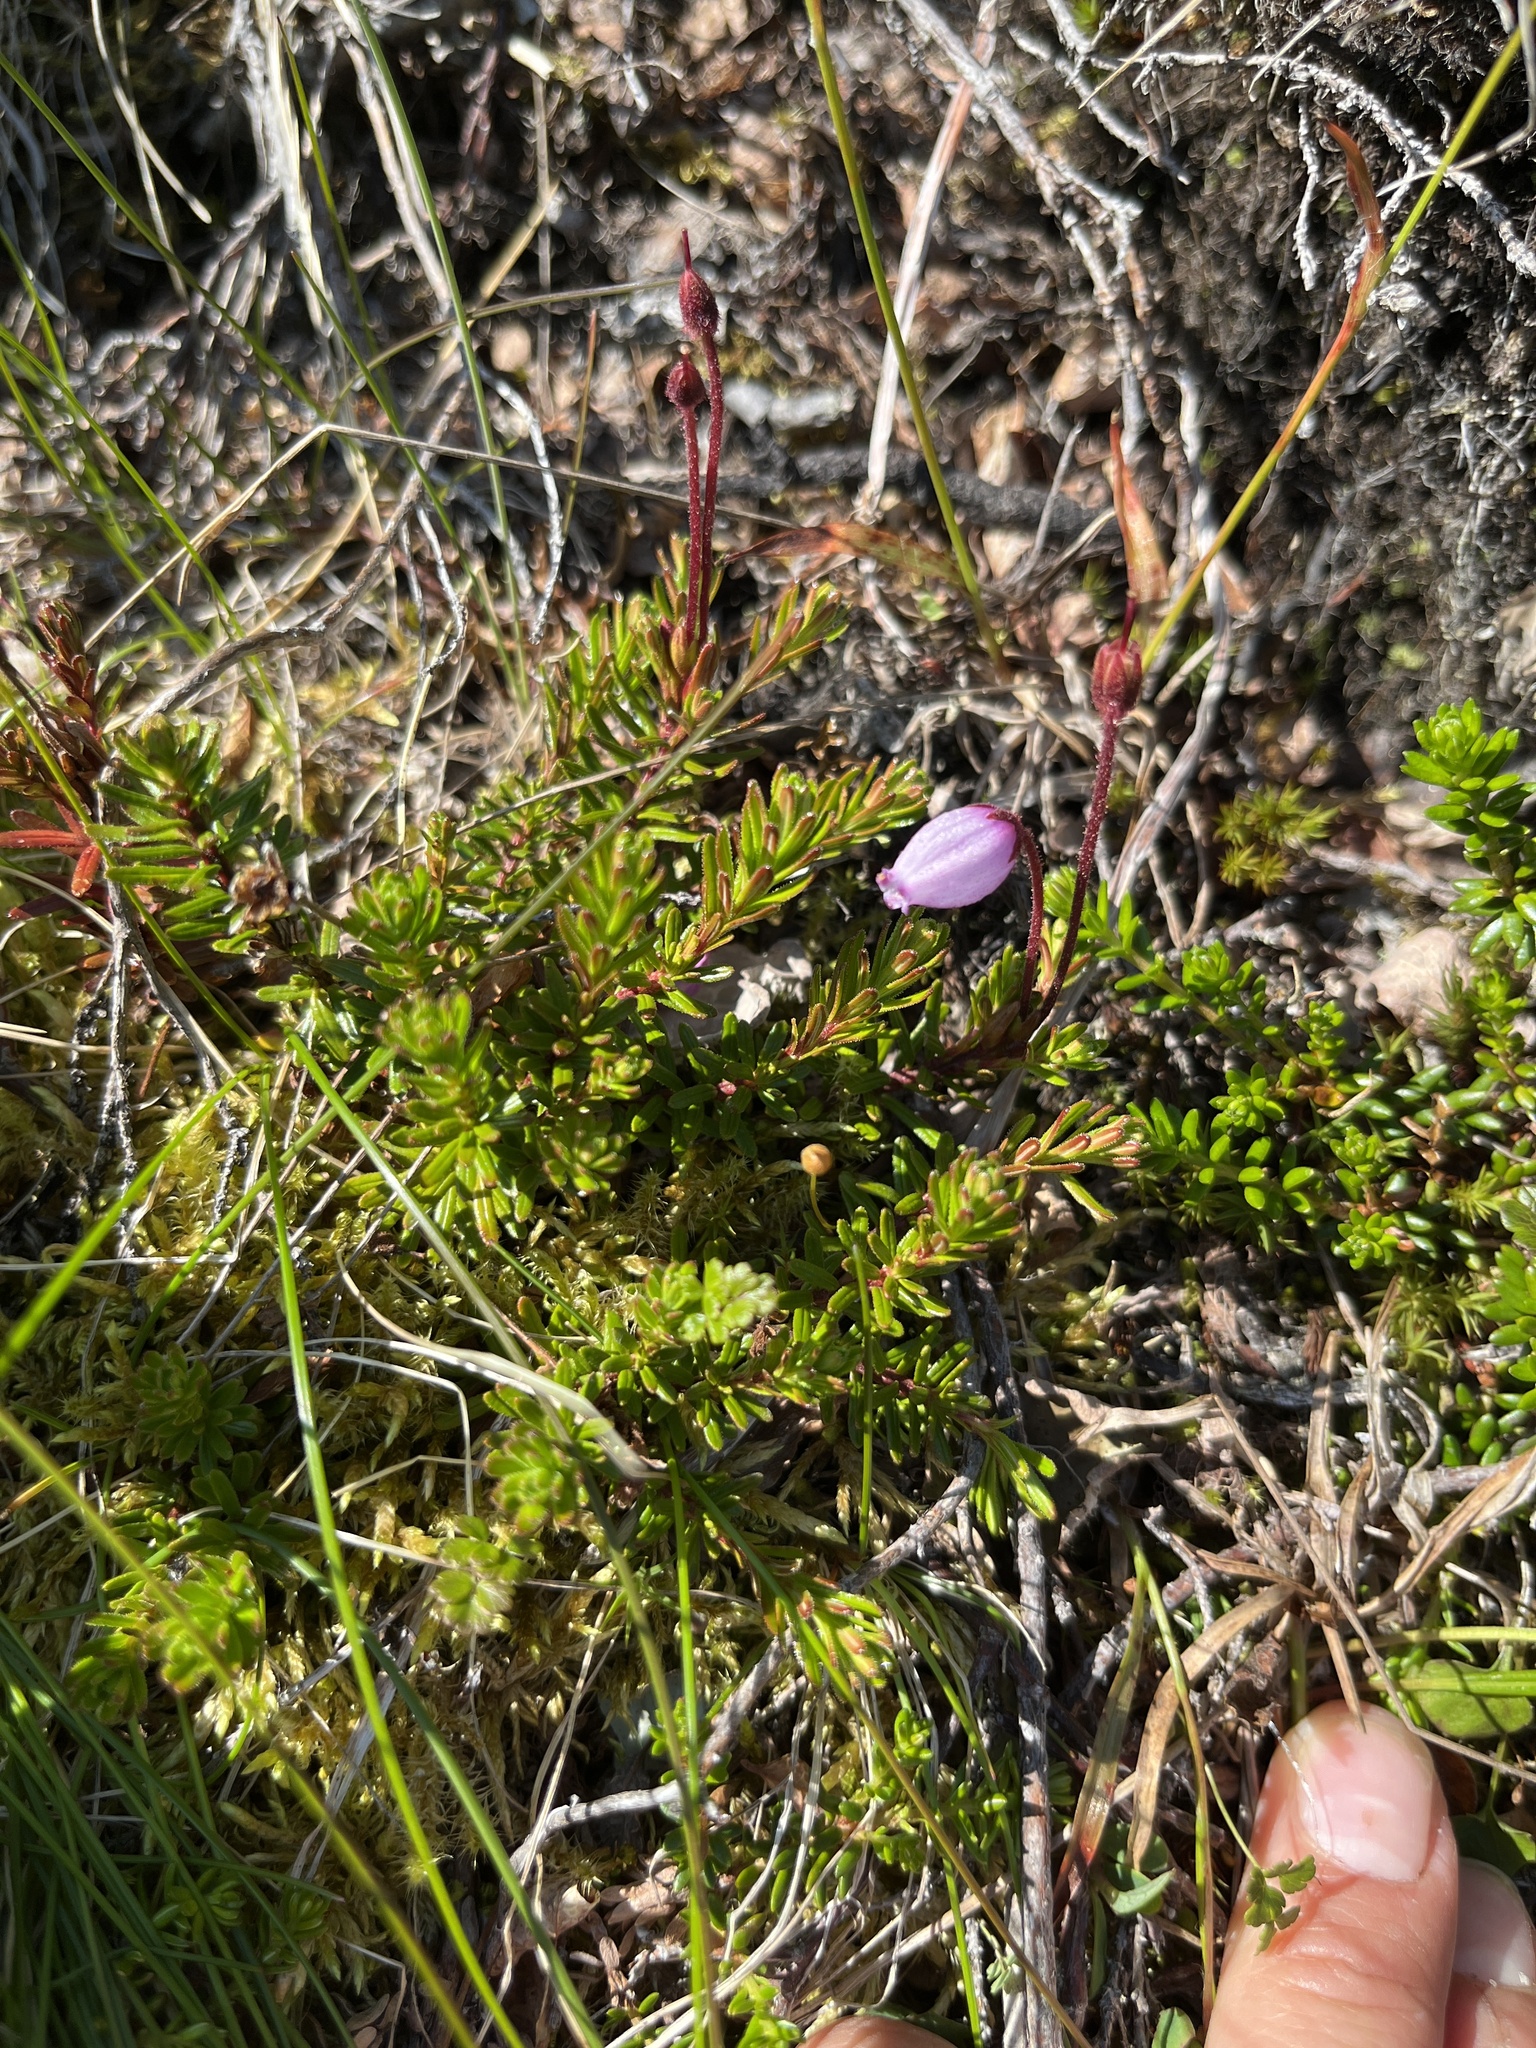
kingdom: Plantae
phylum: Tracheophyta
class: Magnoliopsida
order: Ericales
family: Ericaceae
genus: Phyllodoce
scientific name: Phyllodoce caerulea
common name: Blue heath
